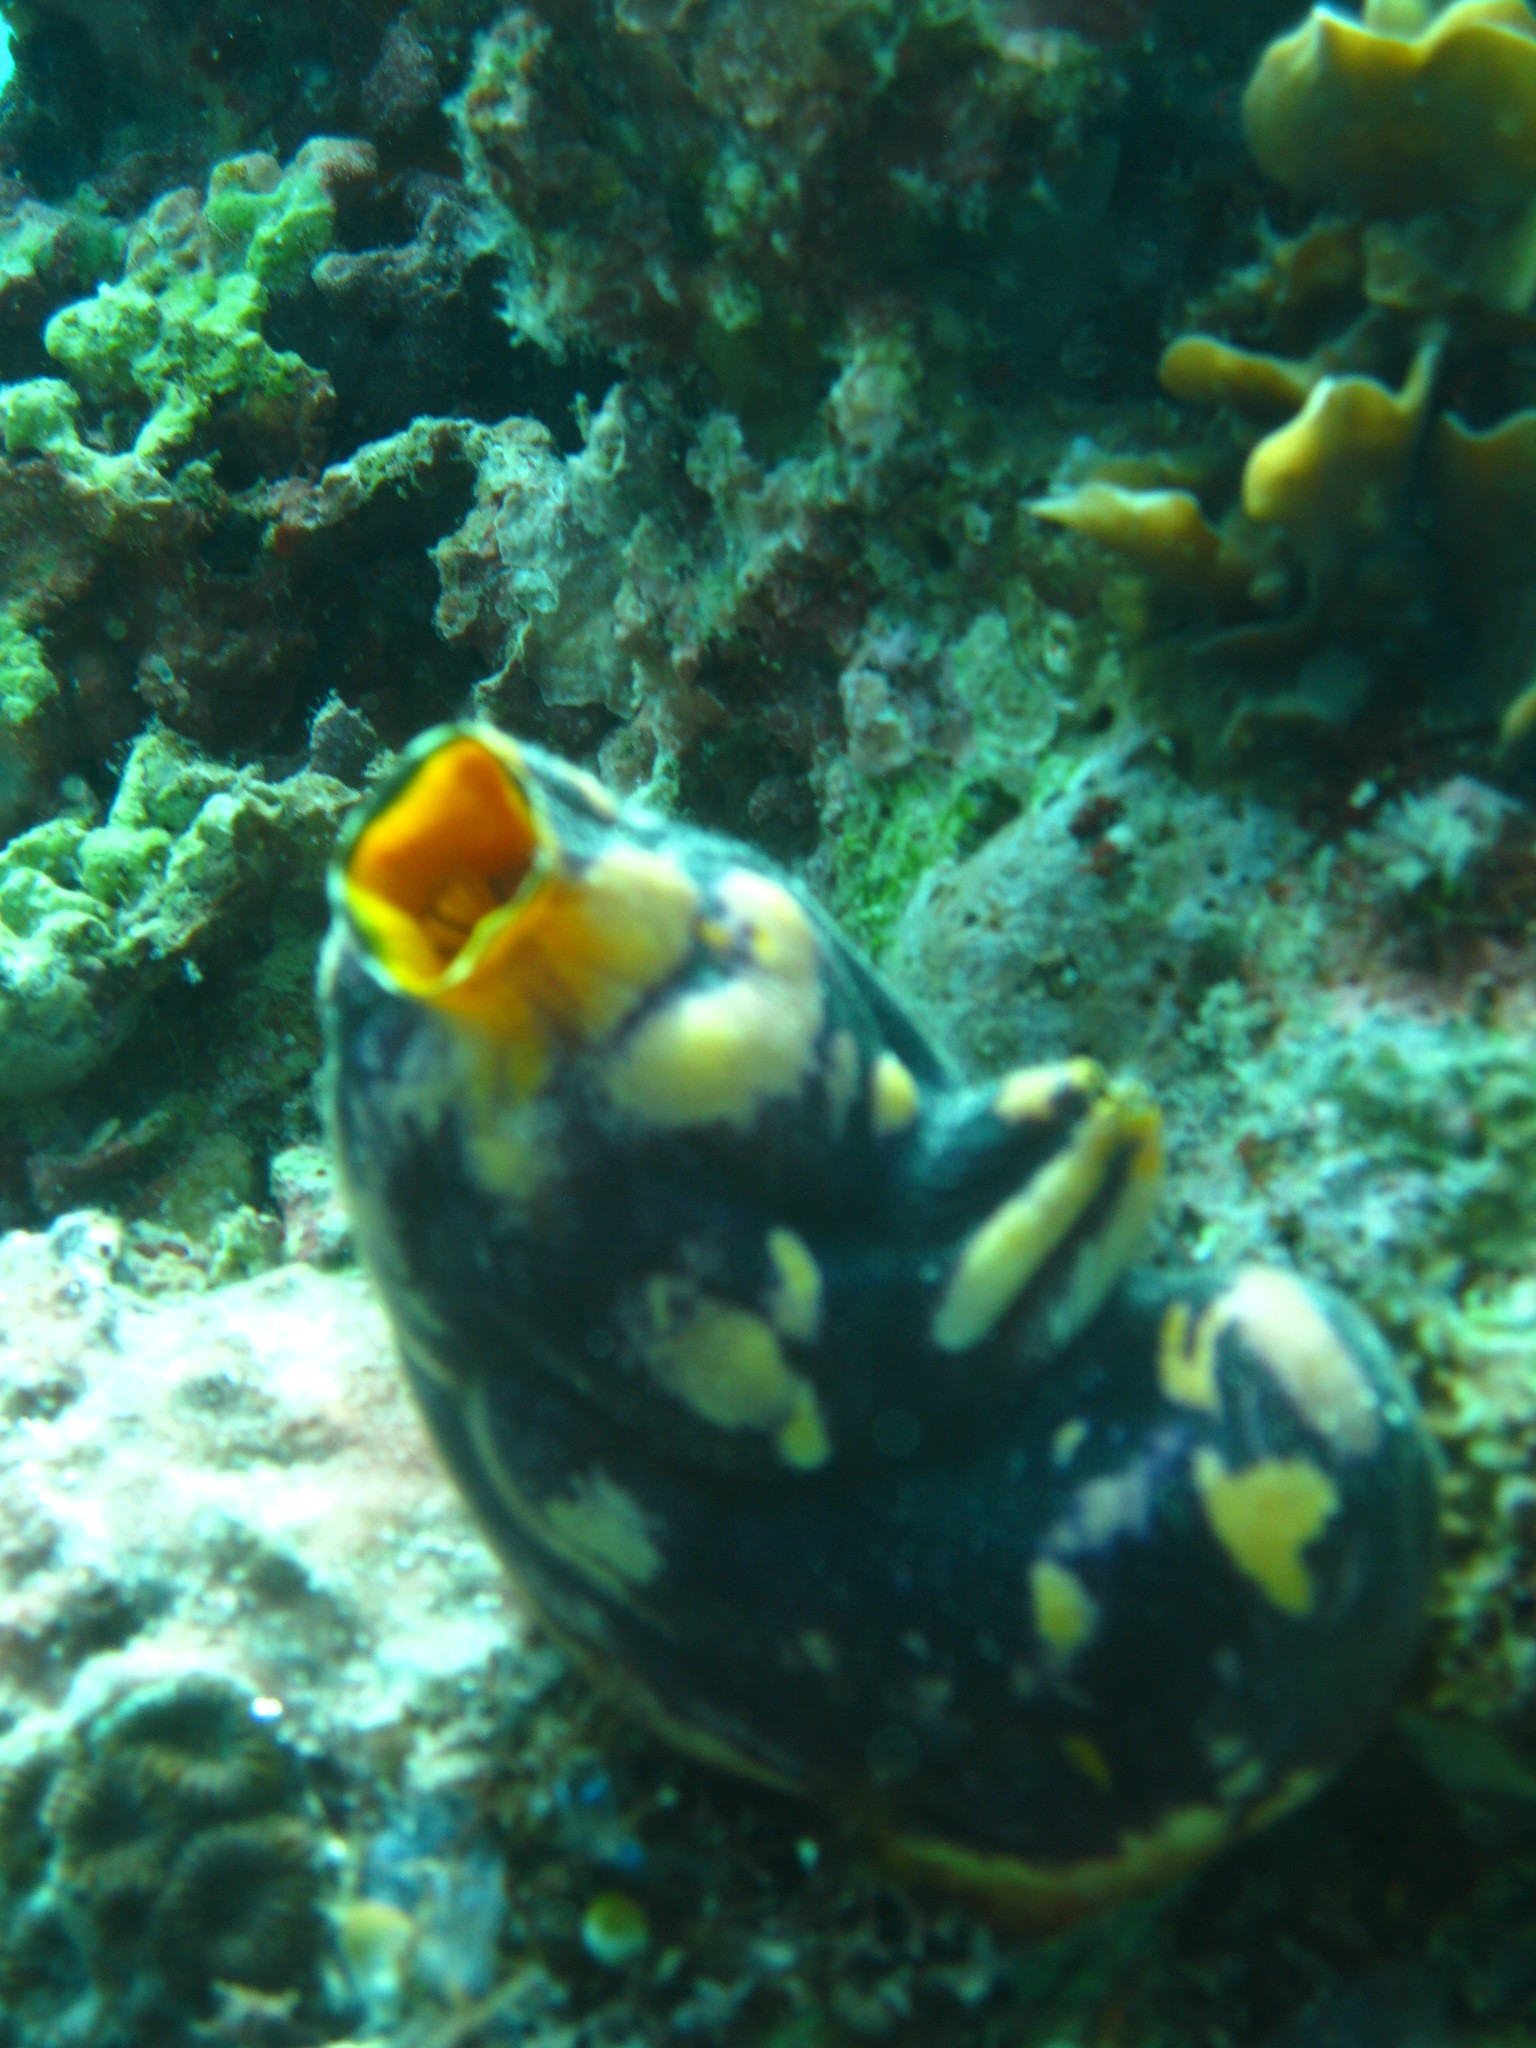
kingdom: Animalia
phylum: Chordata
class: Ascidiacea
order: Stolidobranchia
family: Styelidae
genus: Polycarpa
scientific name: Polycarpa aurata
